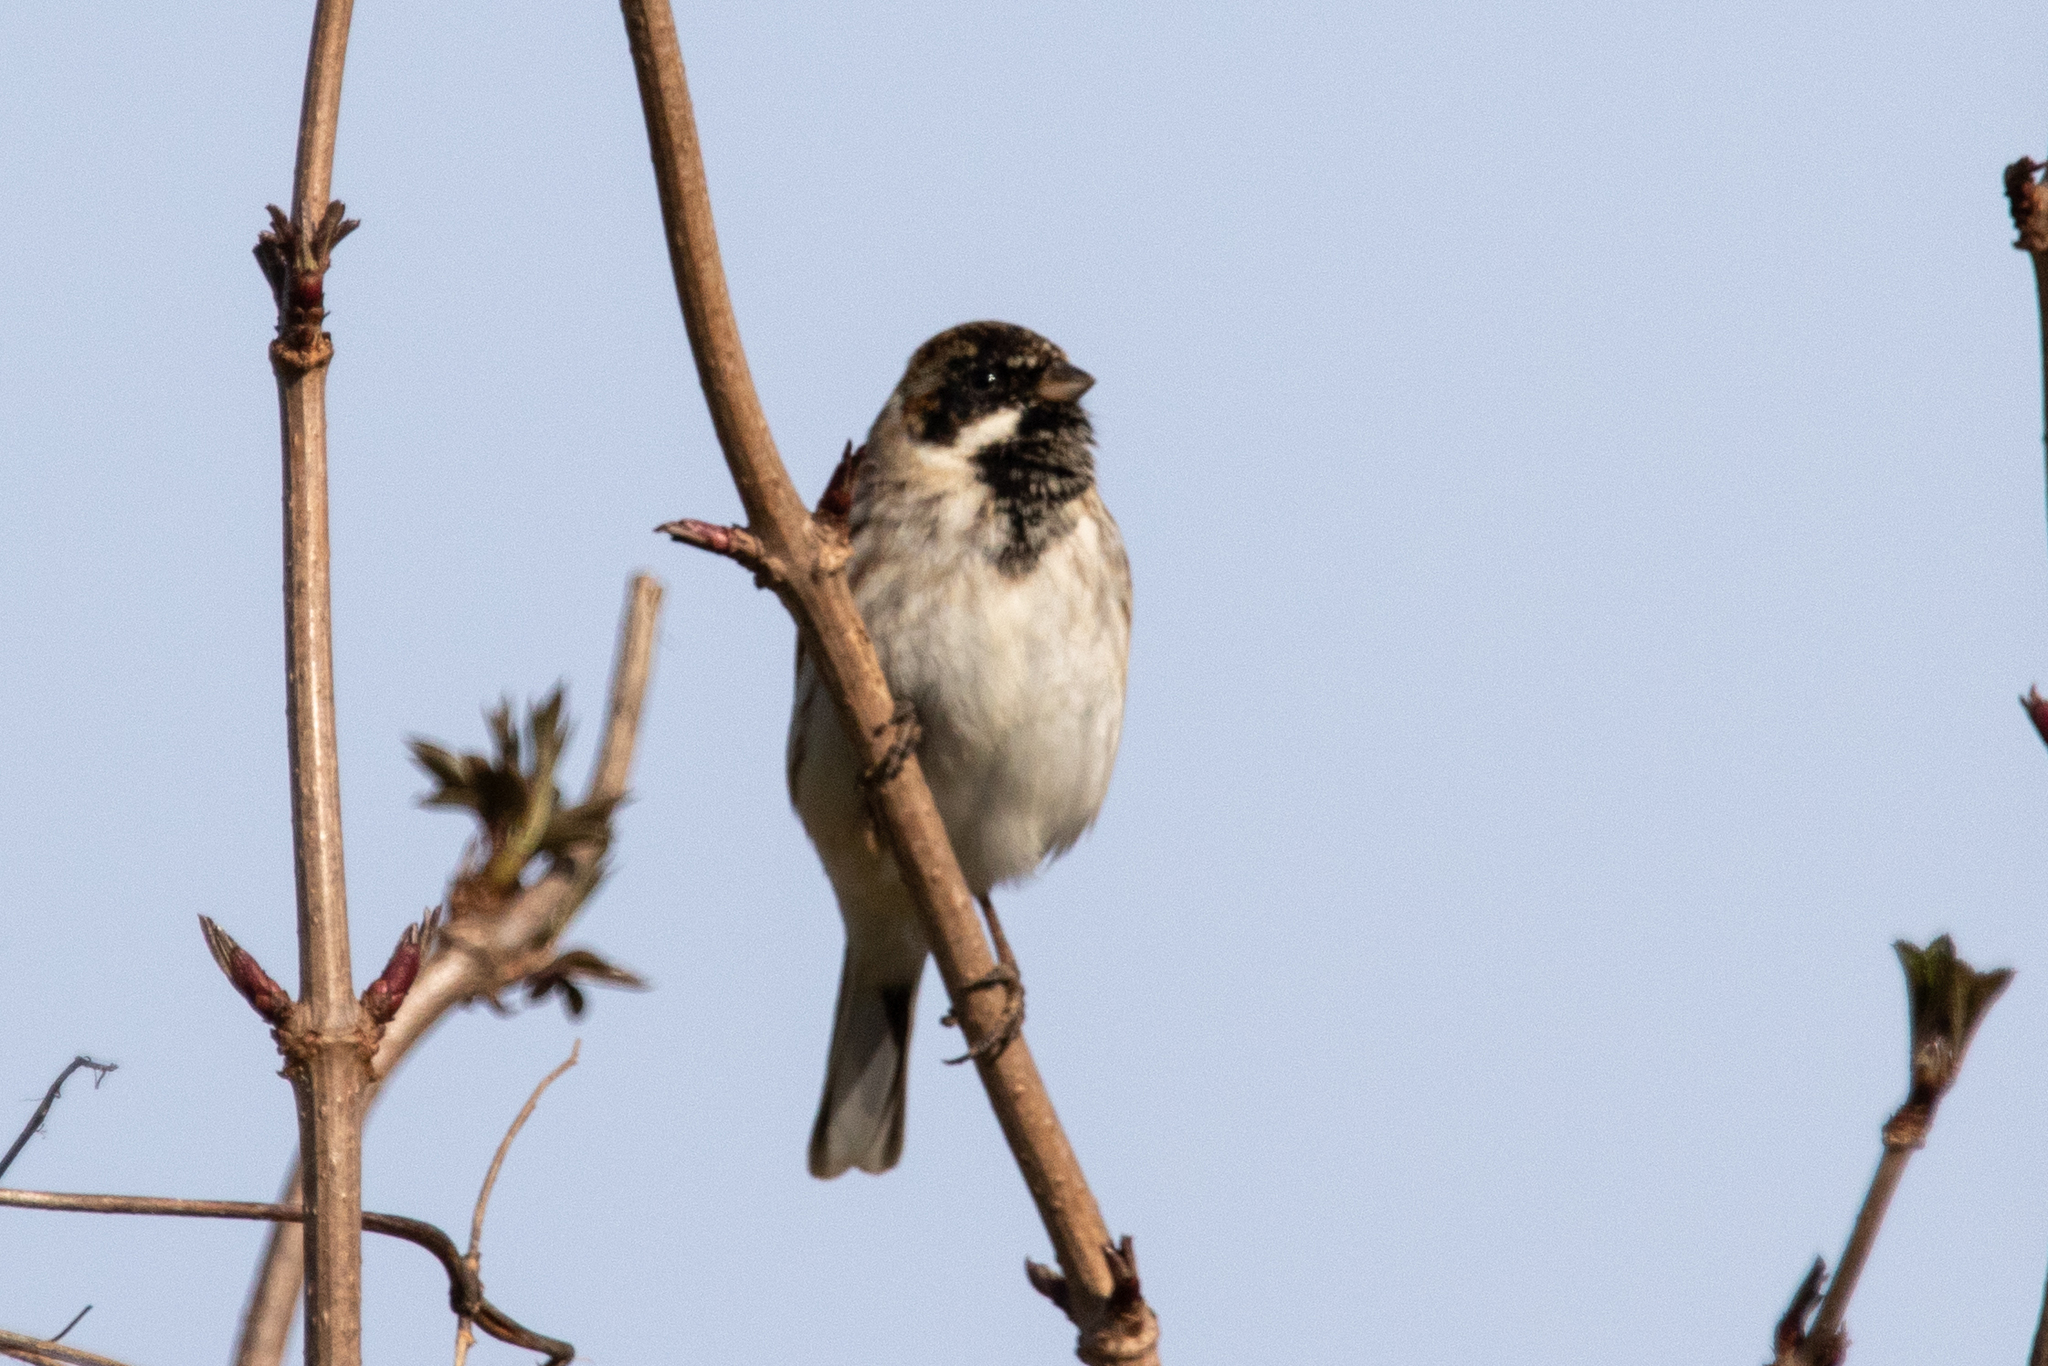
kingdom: Animalia
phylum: Chordata
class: Aves
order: Passeriformes
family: Emberizidae
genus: Emberiza
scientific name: Emberiza schoeniclus
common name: Reed bunting
